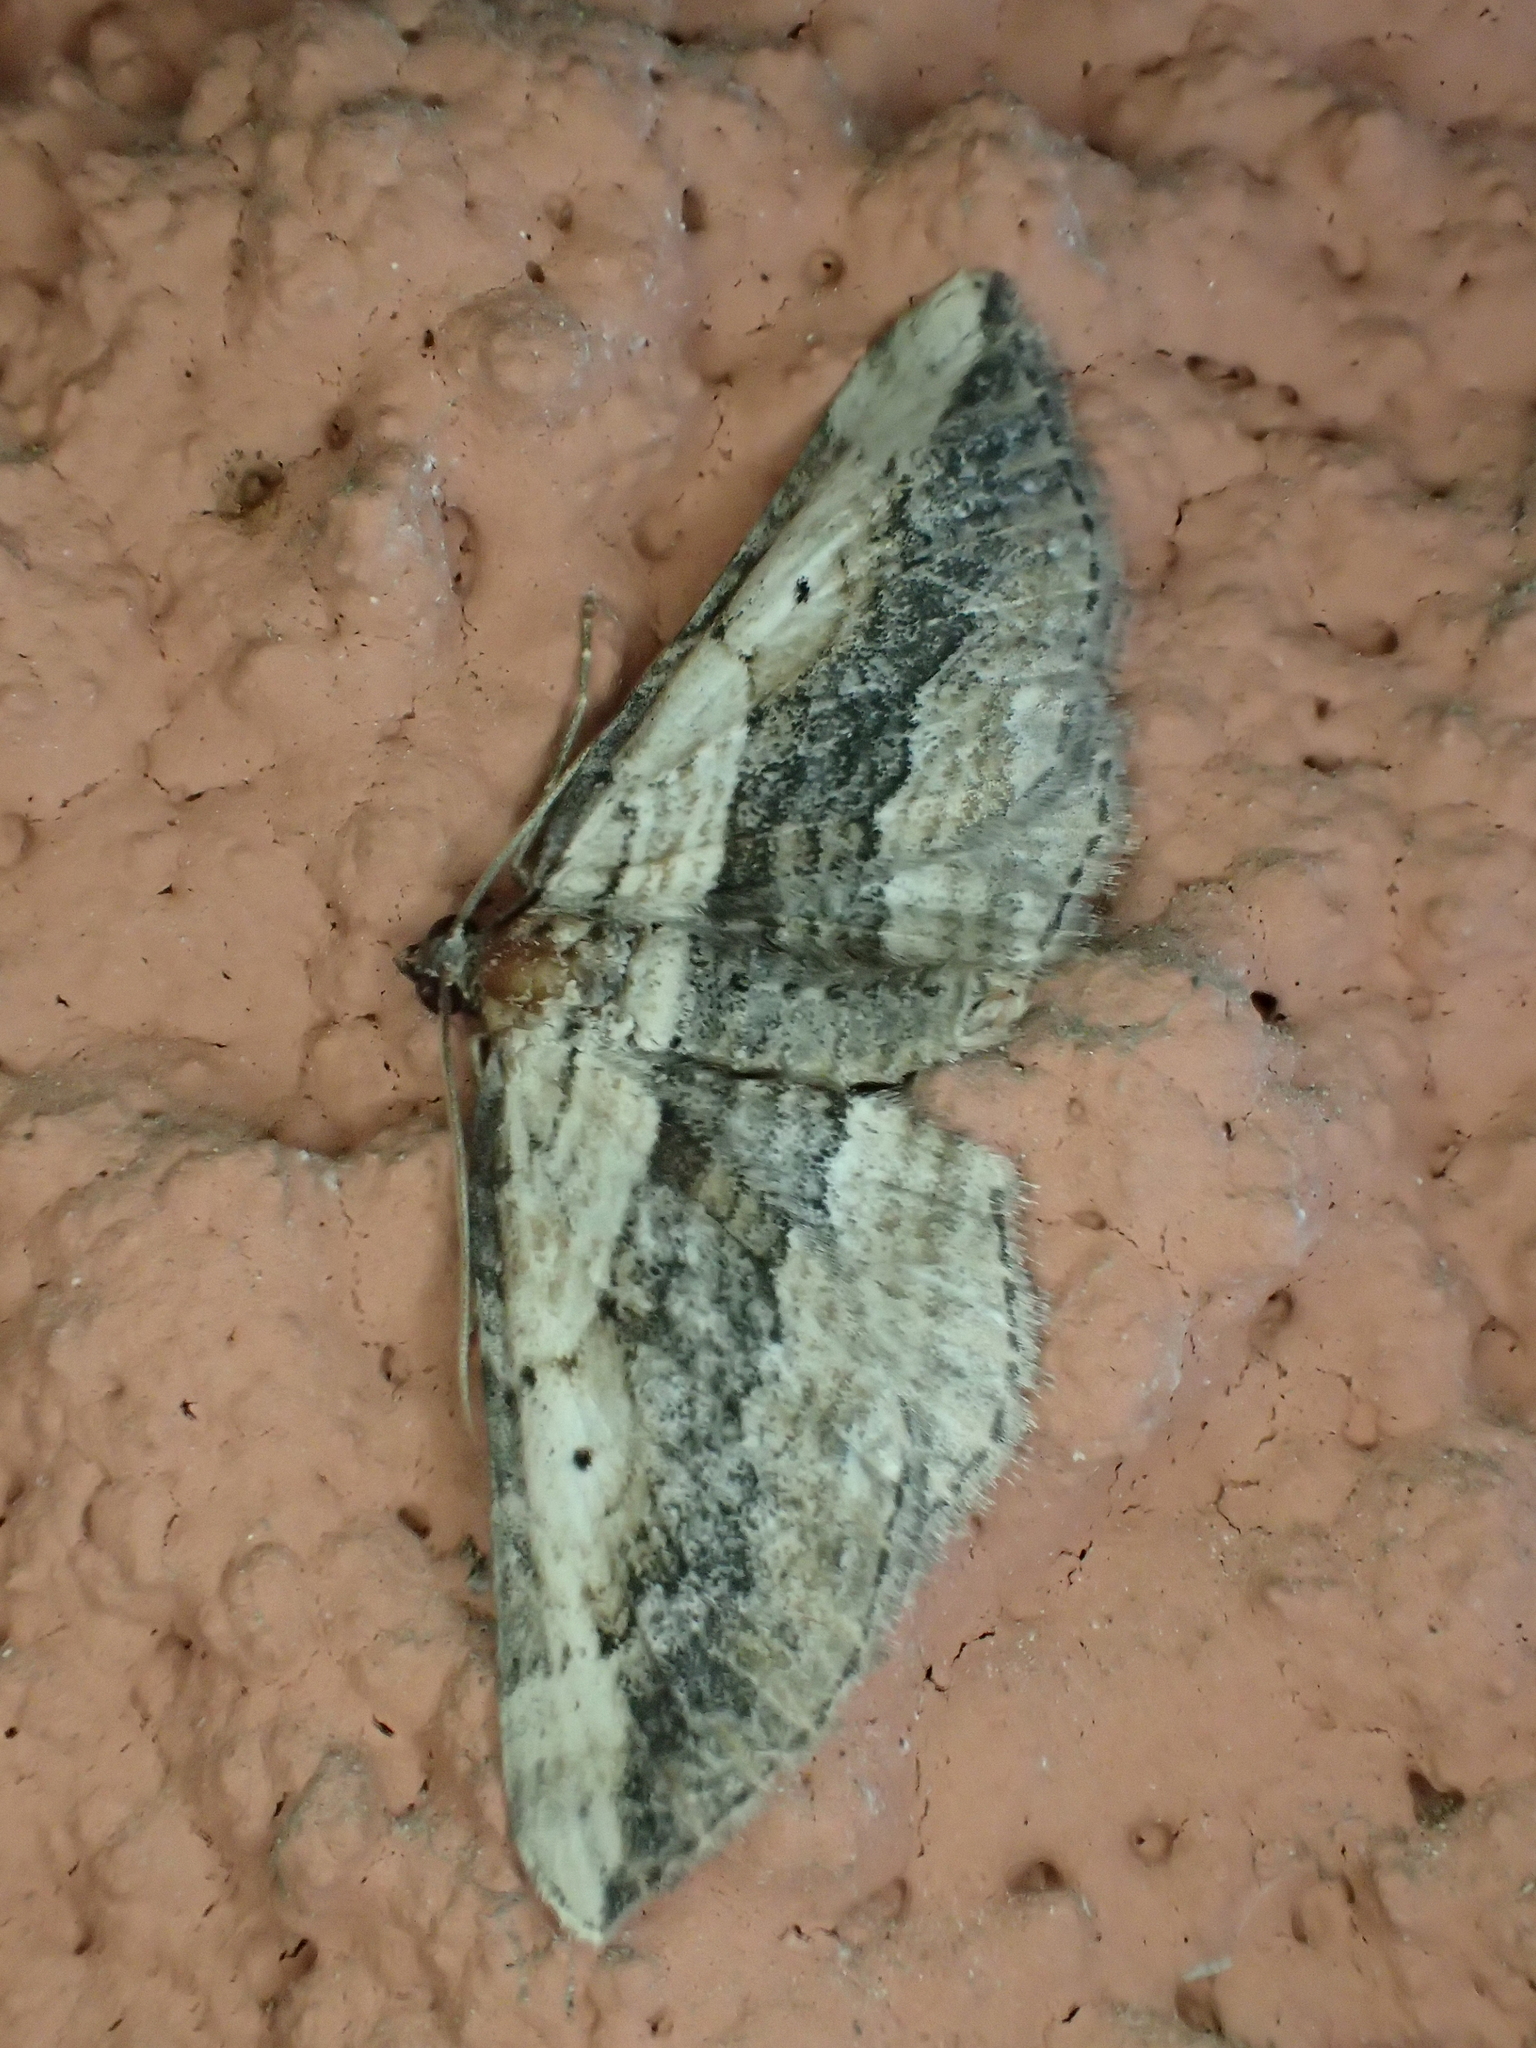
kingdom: Animalia
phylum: Arthropoda
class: Insecta
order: Lepidoptera
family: Geometridae
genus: Horisme
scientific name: Horisme vitalbata
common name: Small waved umber
